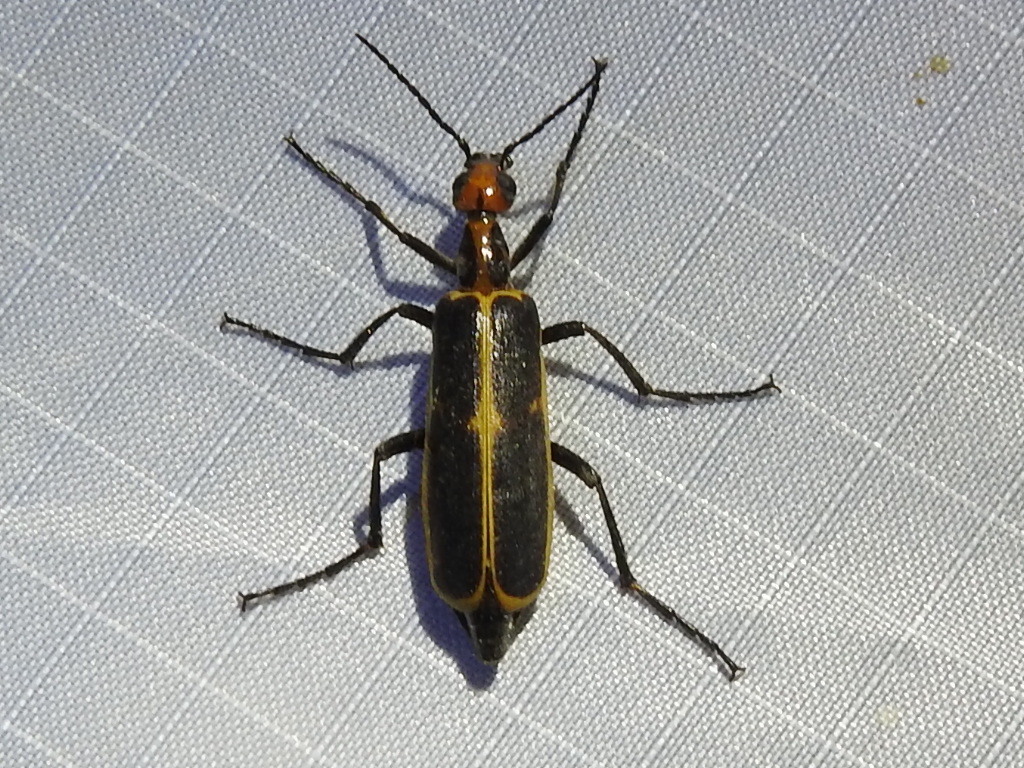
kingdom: Animalia
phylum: Arthropoda
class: Insecta
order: Coleoptera
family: Meloidae
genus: Pyrota
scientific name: Pyrota
